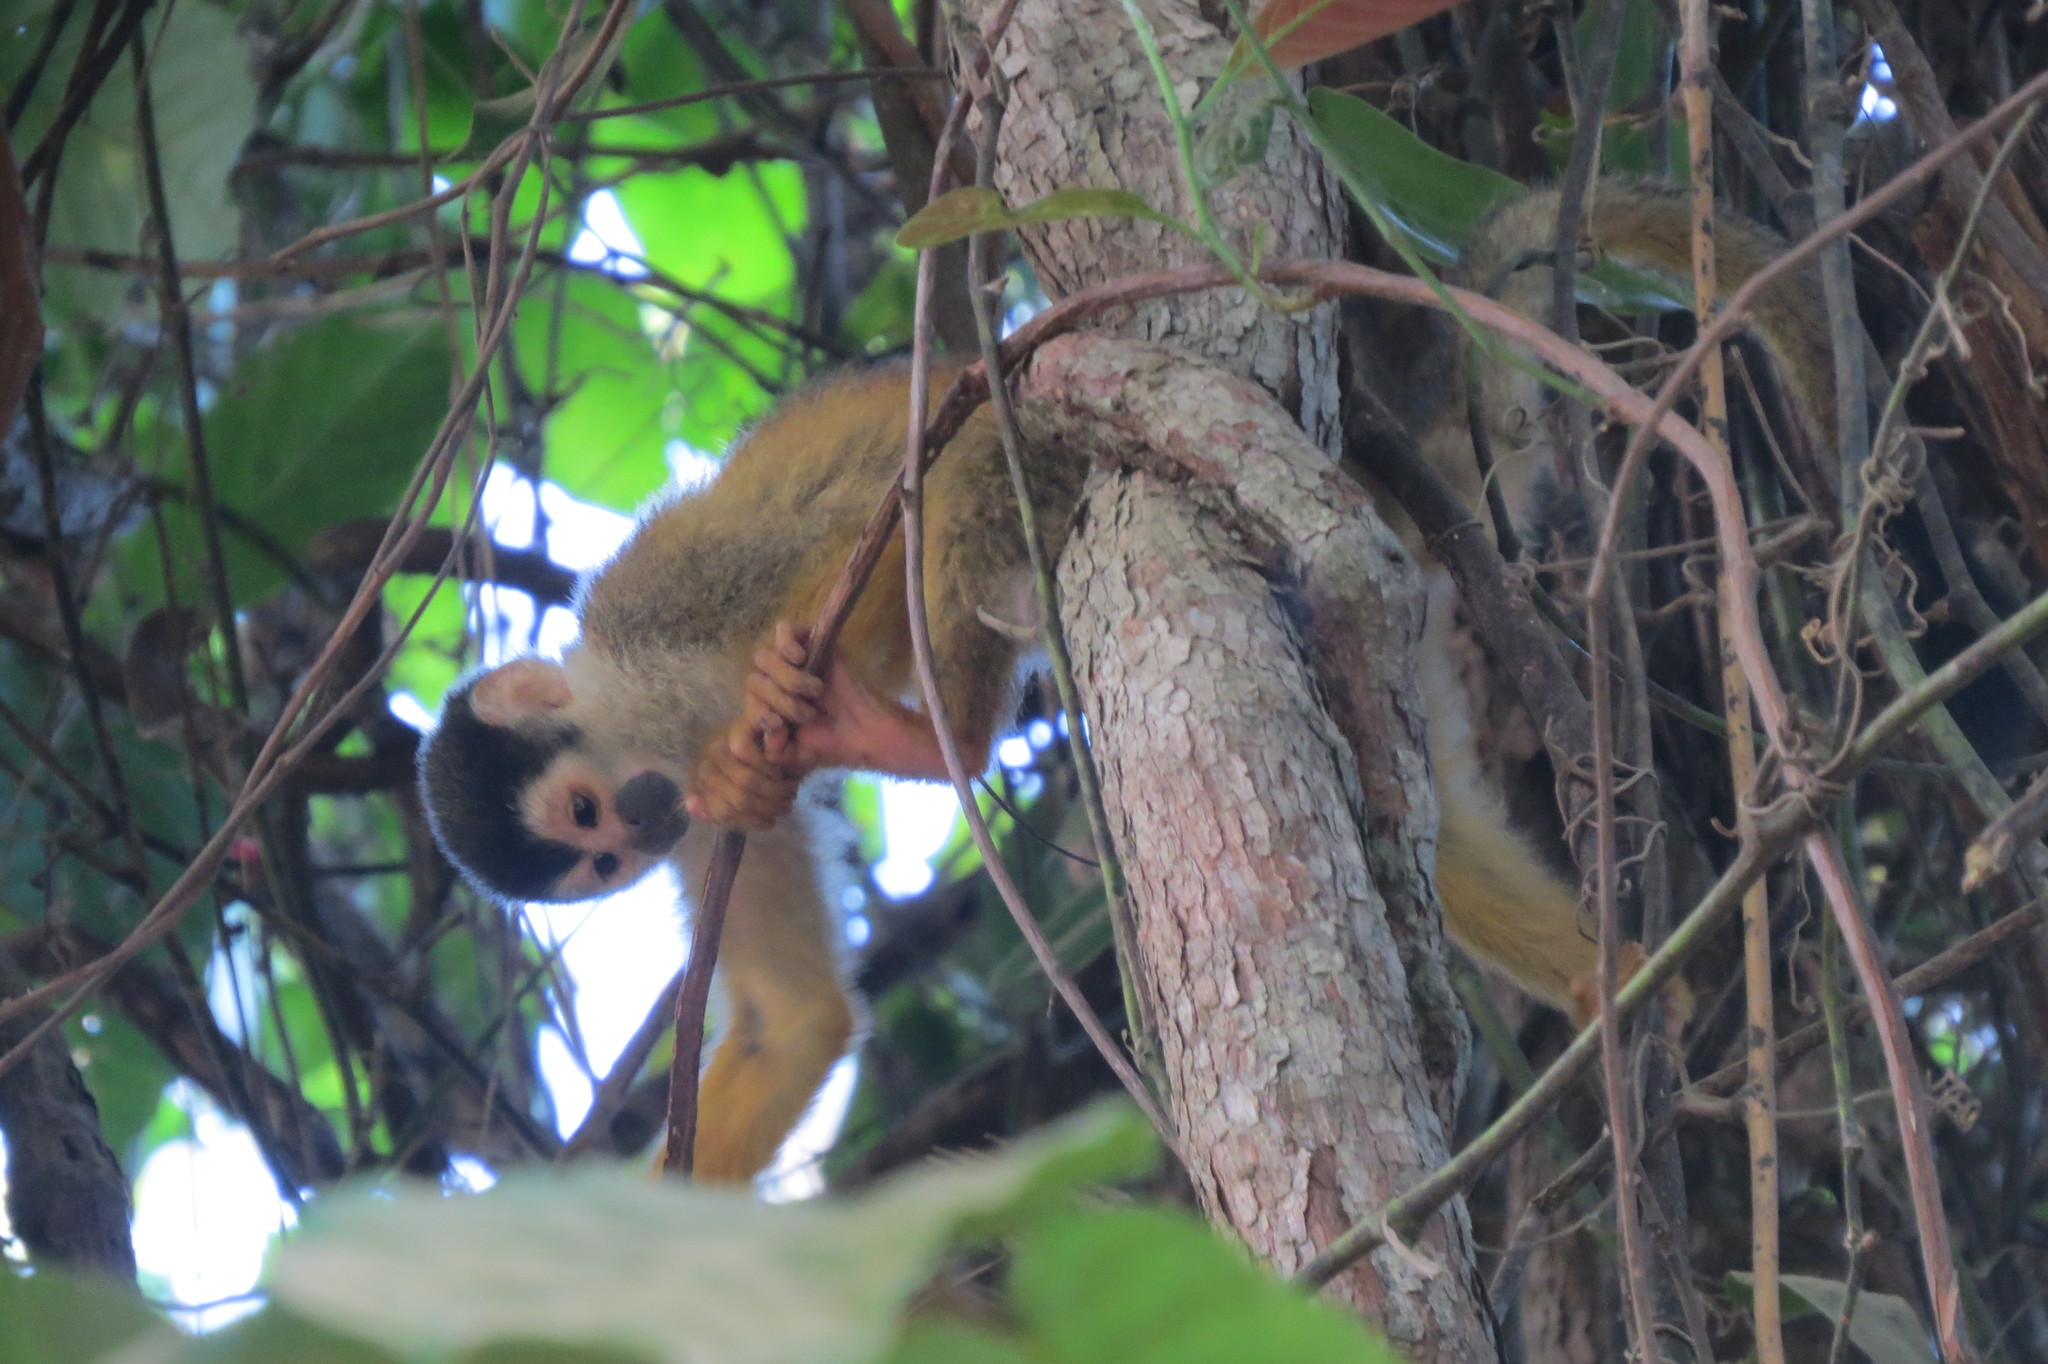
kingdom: Animalia
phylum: Chordata
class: Mammalia
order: Primates
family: Cebidae
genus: Saimiri
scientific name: Saimiri oerstedii
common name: Central american squirrel monkey
